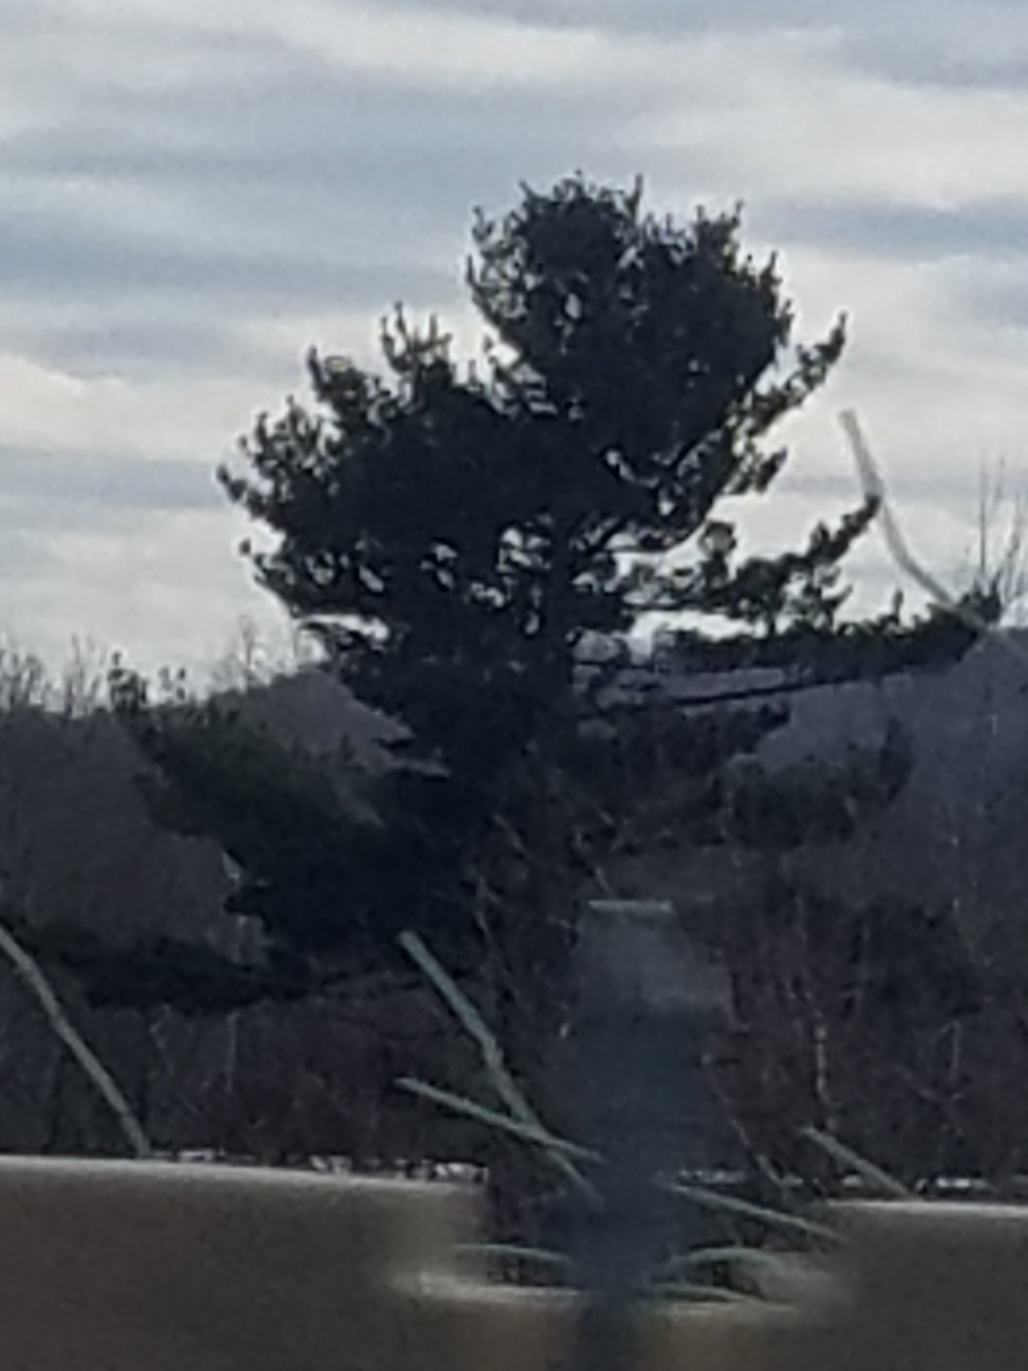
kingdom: Plantae
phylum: Tracheophyta
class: Pinopsida
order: Pinales
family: Pinaceae
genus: Pinus
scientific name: Pinus strobus
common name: Weymouth pine
